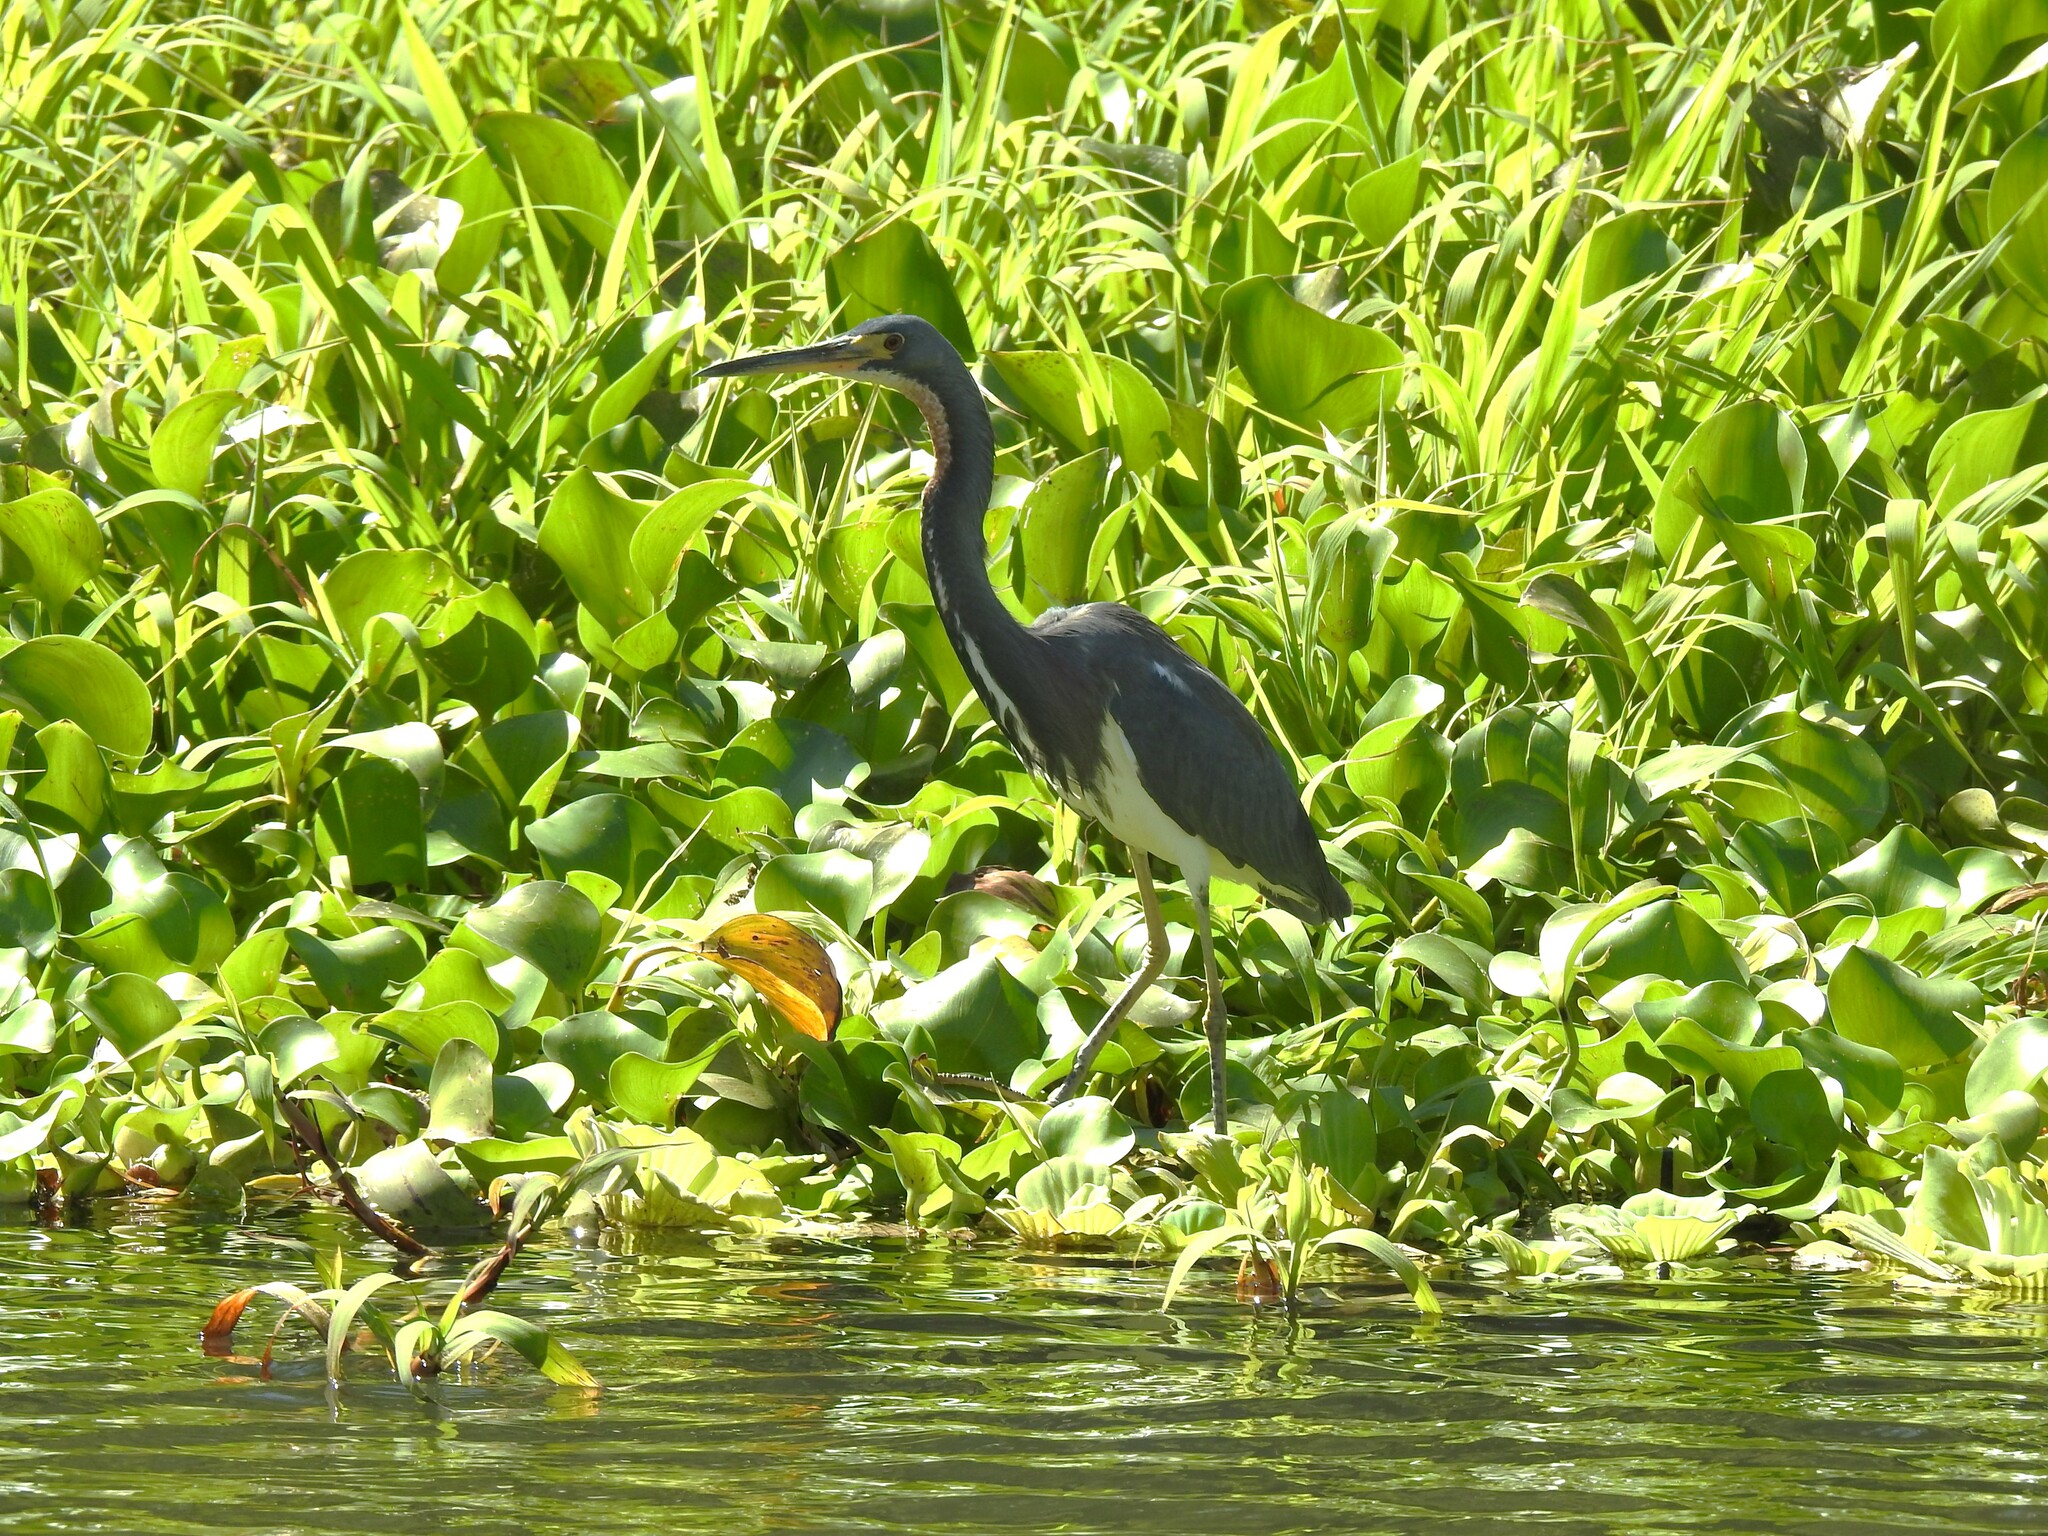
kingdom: Animalia
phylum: Chordata
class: Aves
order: Pelecaniformes
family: Ardeidae
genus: Egretta
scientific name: Egretta tricolor
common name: Tricolored heron
